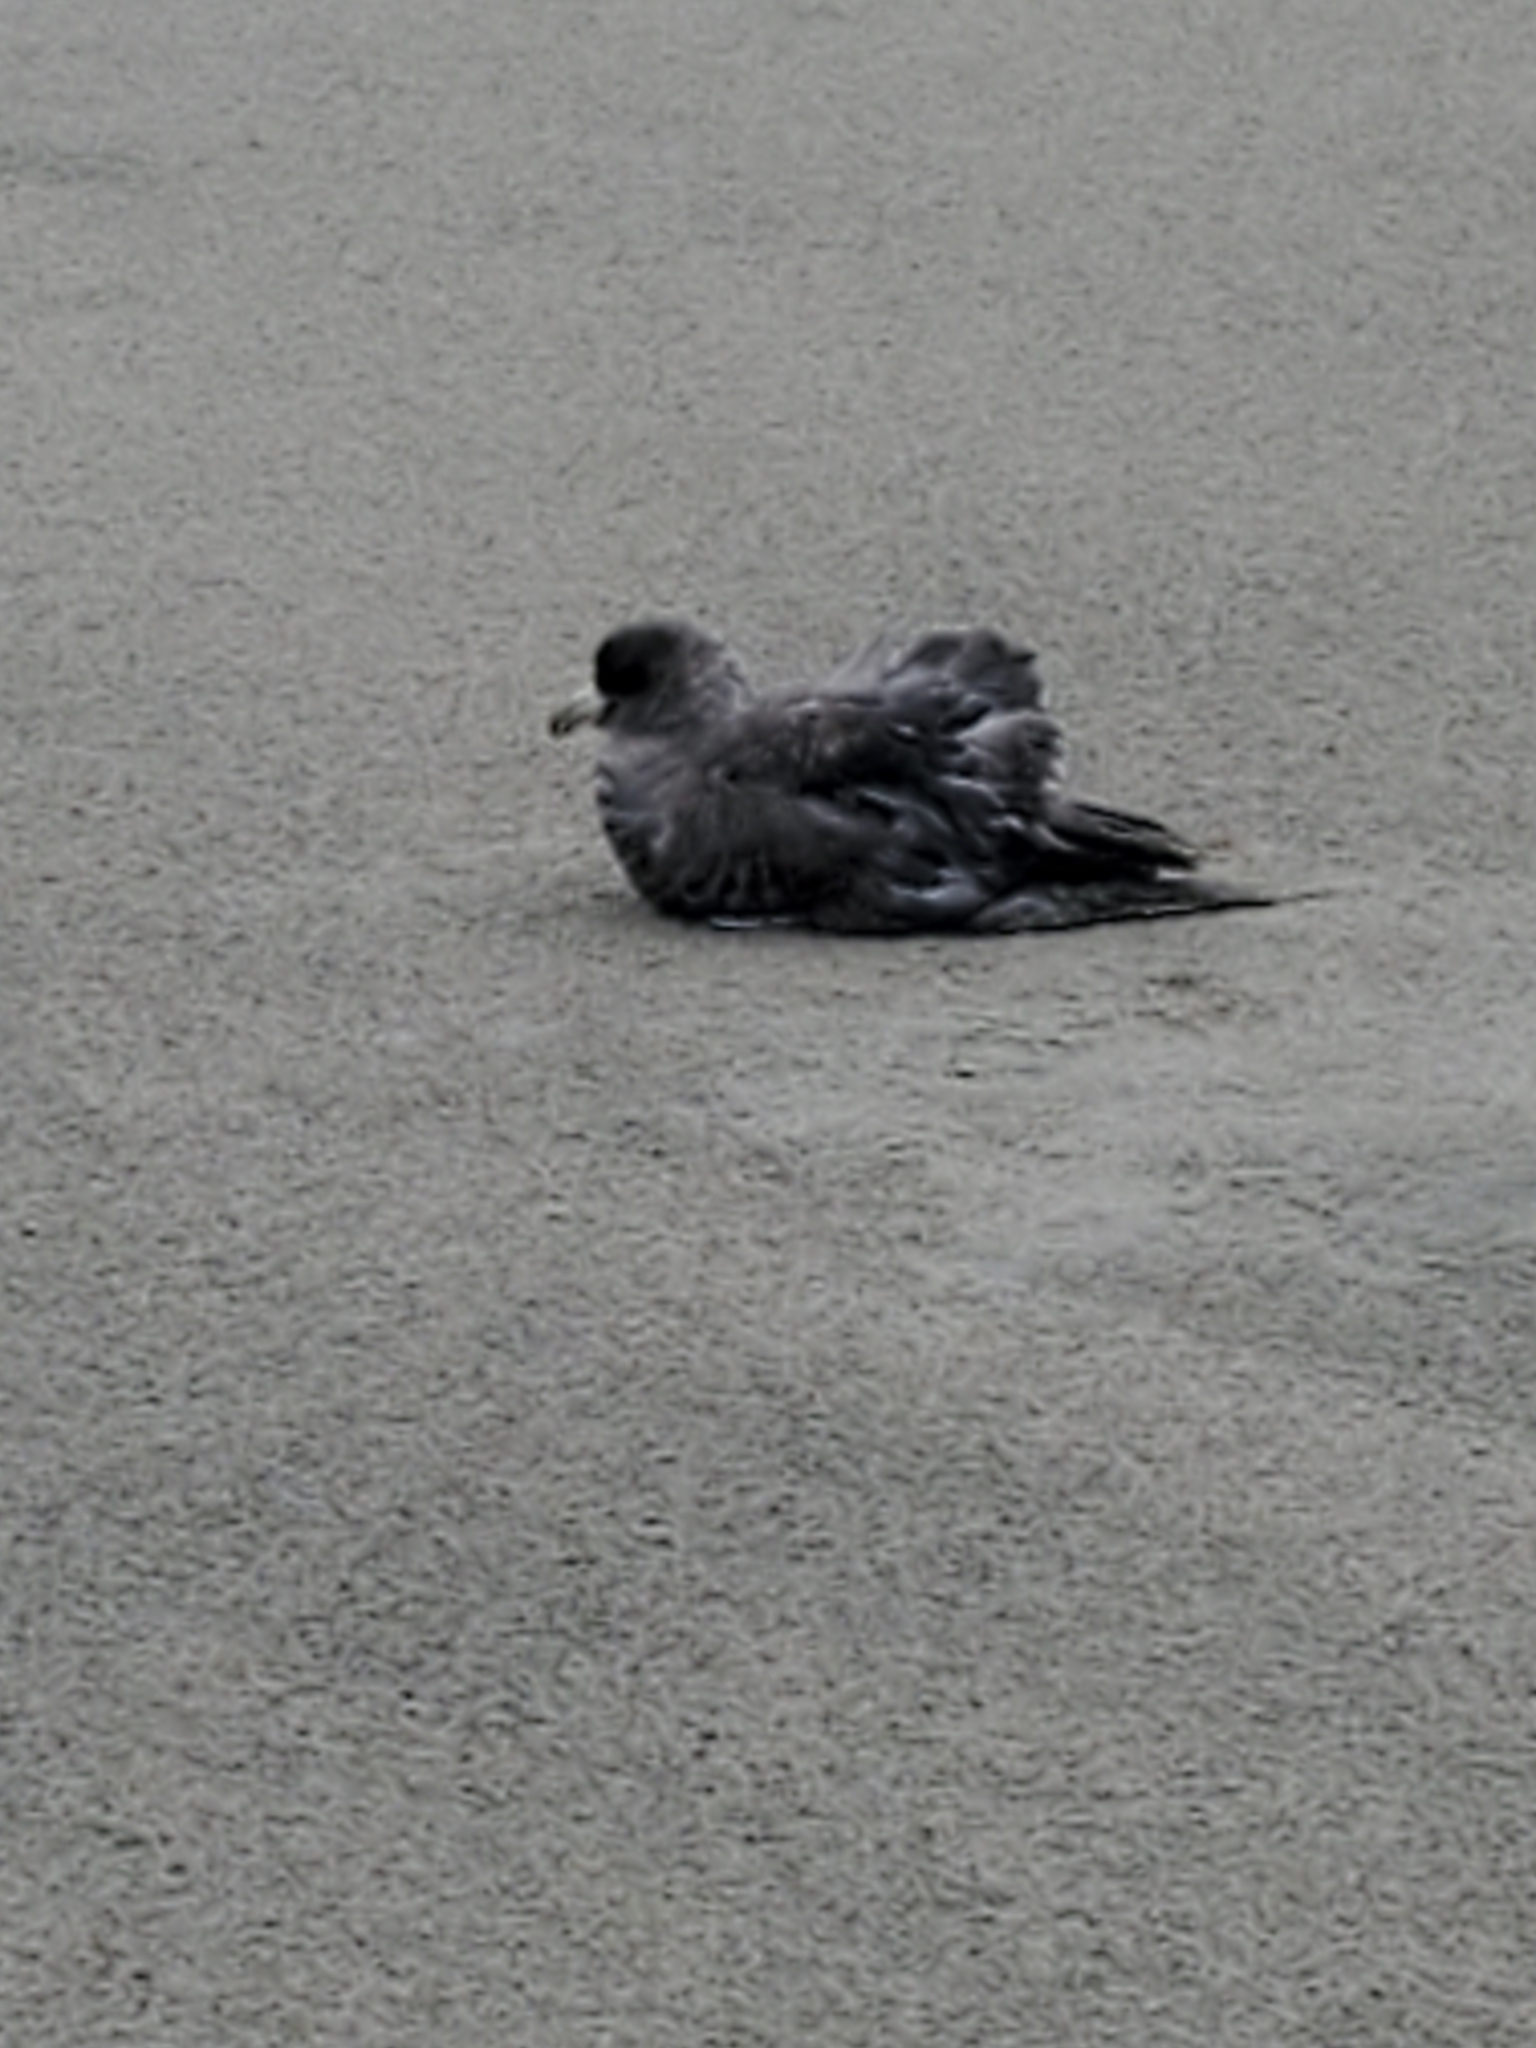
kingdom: Animalia
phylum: Chordata
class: Aves
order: Procellariiformes
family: Procellariidae
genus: Fulmarus
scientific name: Fulmarus glacialis
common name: Northern fulmar
